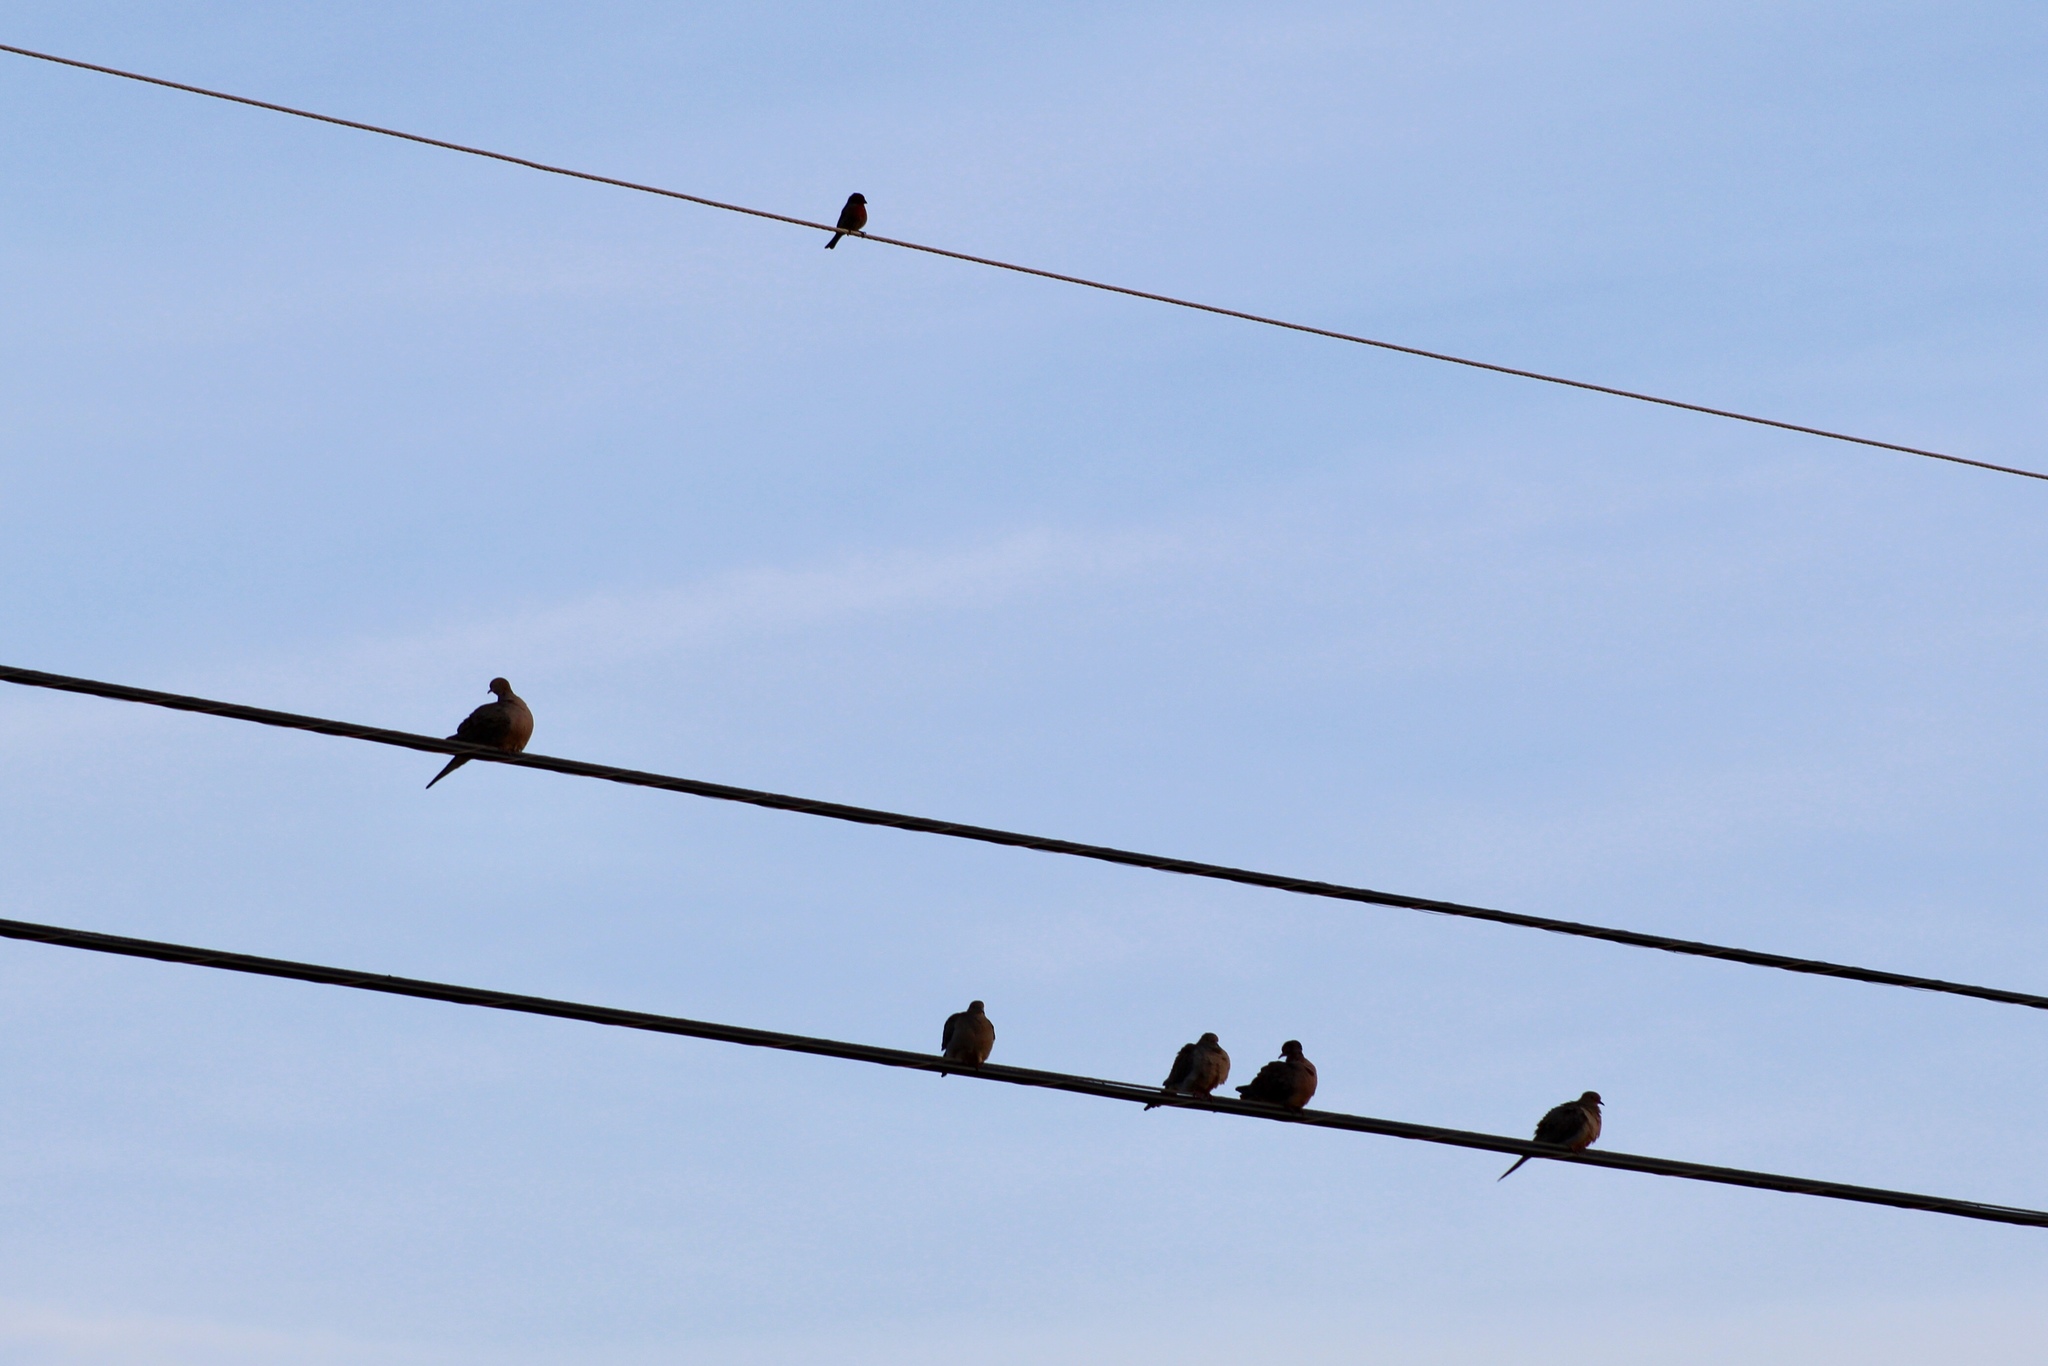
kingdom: Animalia
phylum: Chordata
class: Aves
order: Columbiformes
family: Columbidae
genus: Zenaida
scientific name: Zenaida macroura
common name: Mourning dove
